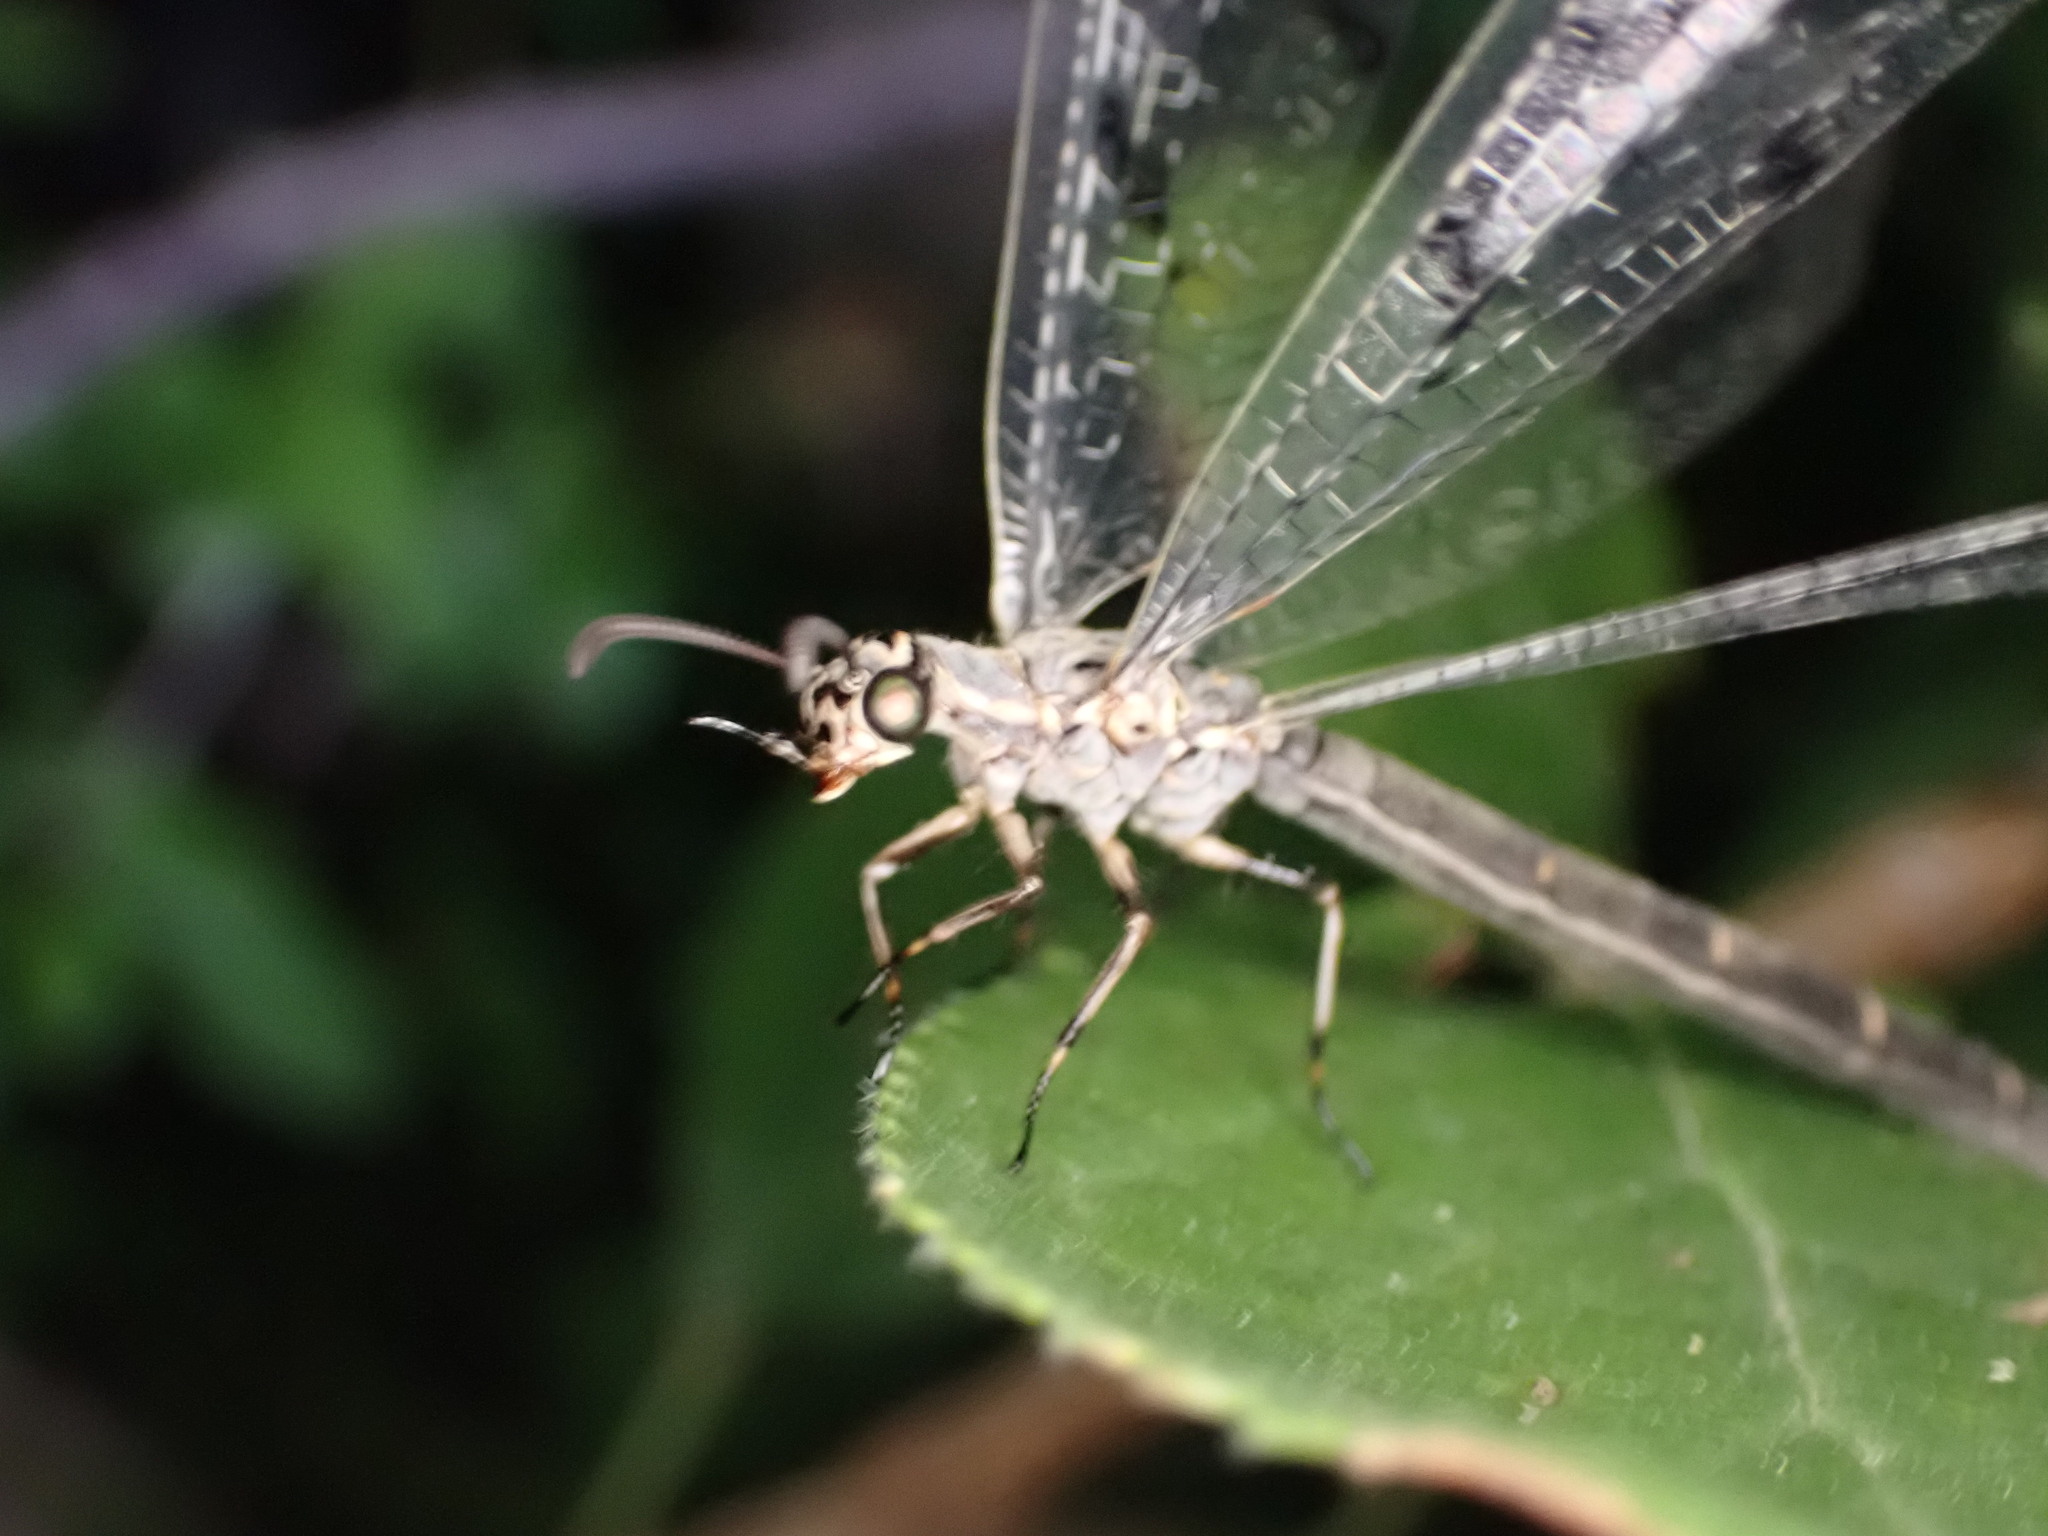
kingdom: Animalia
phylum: Arthropoda
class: Insecta
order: Neuroptera
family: Myrmeleontidae
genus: Euroleon
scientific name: Euroleon nostras
